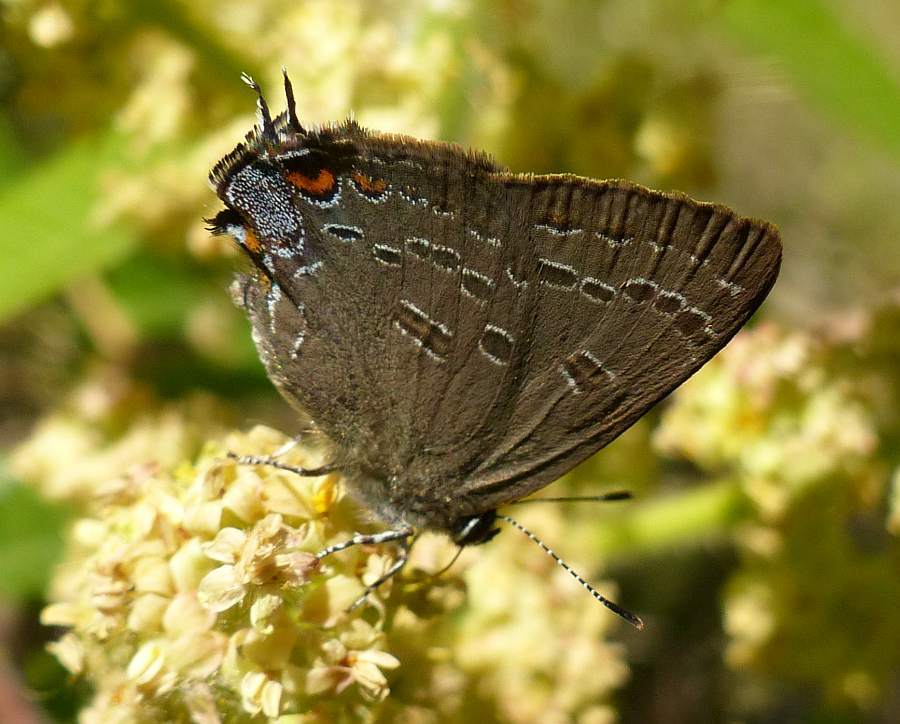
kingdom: Animalia
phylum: Arthropoda
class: Insecta
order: Lepidoptera
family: Lycaenidae
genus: Satyrium
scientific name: Satyrium calanus
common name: Banded hairstreak
